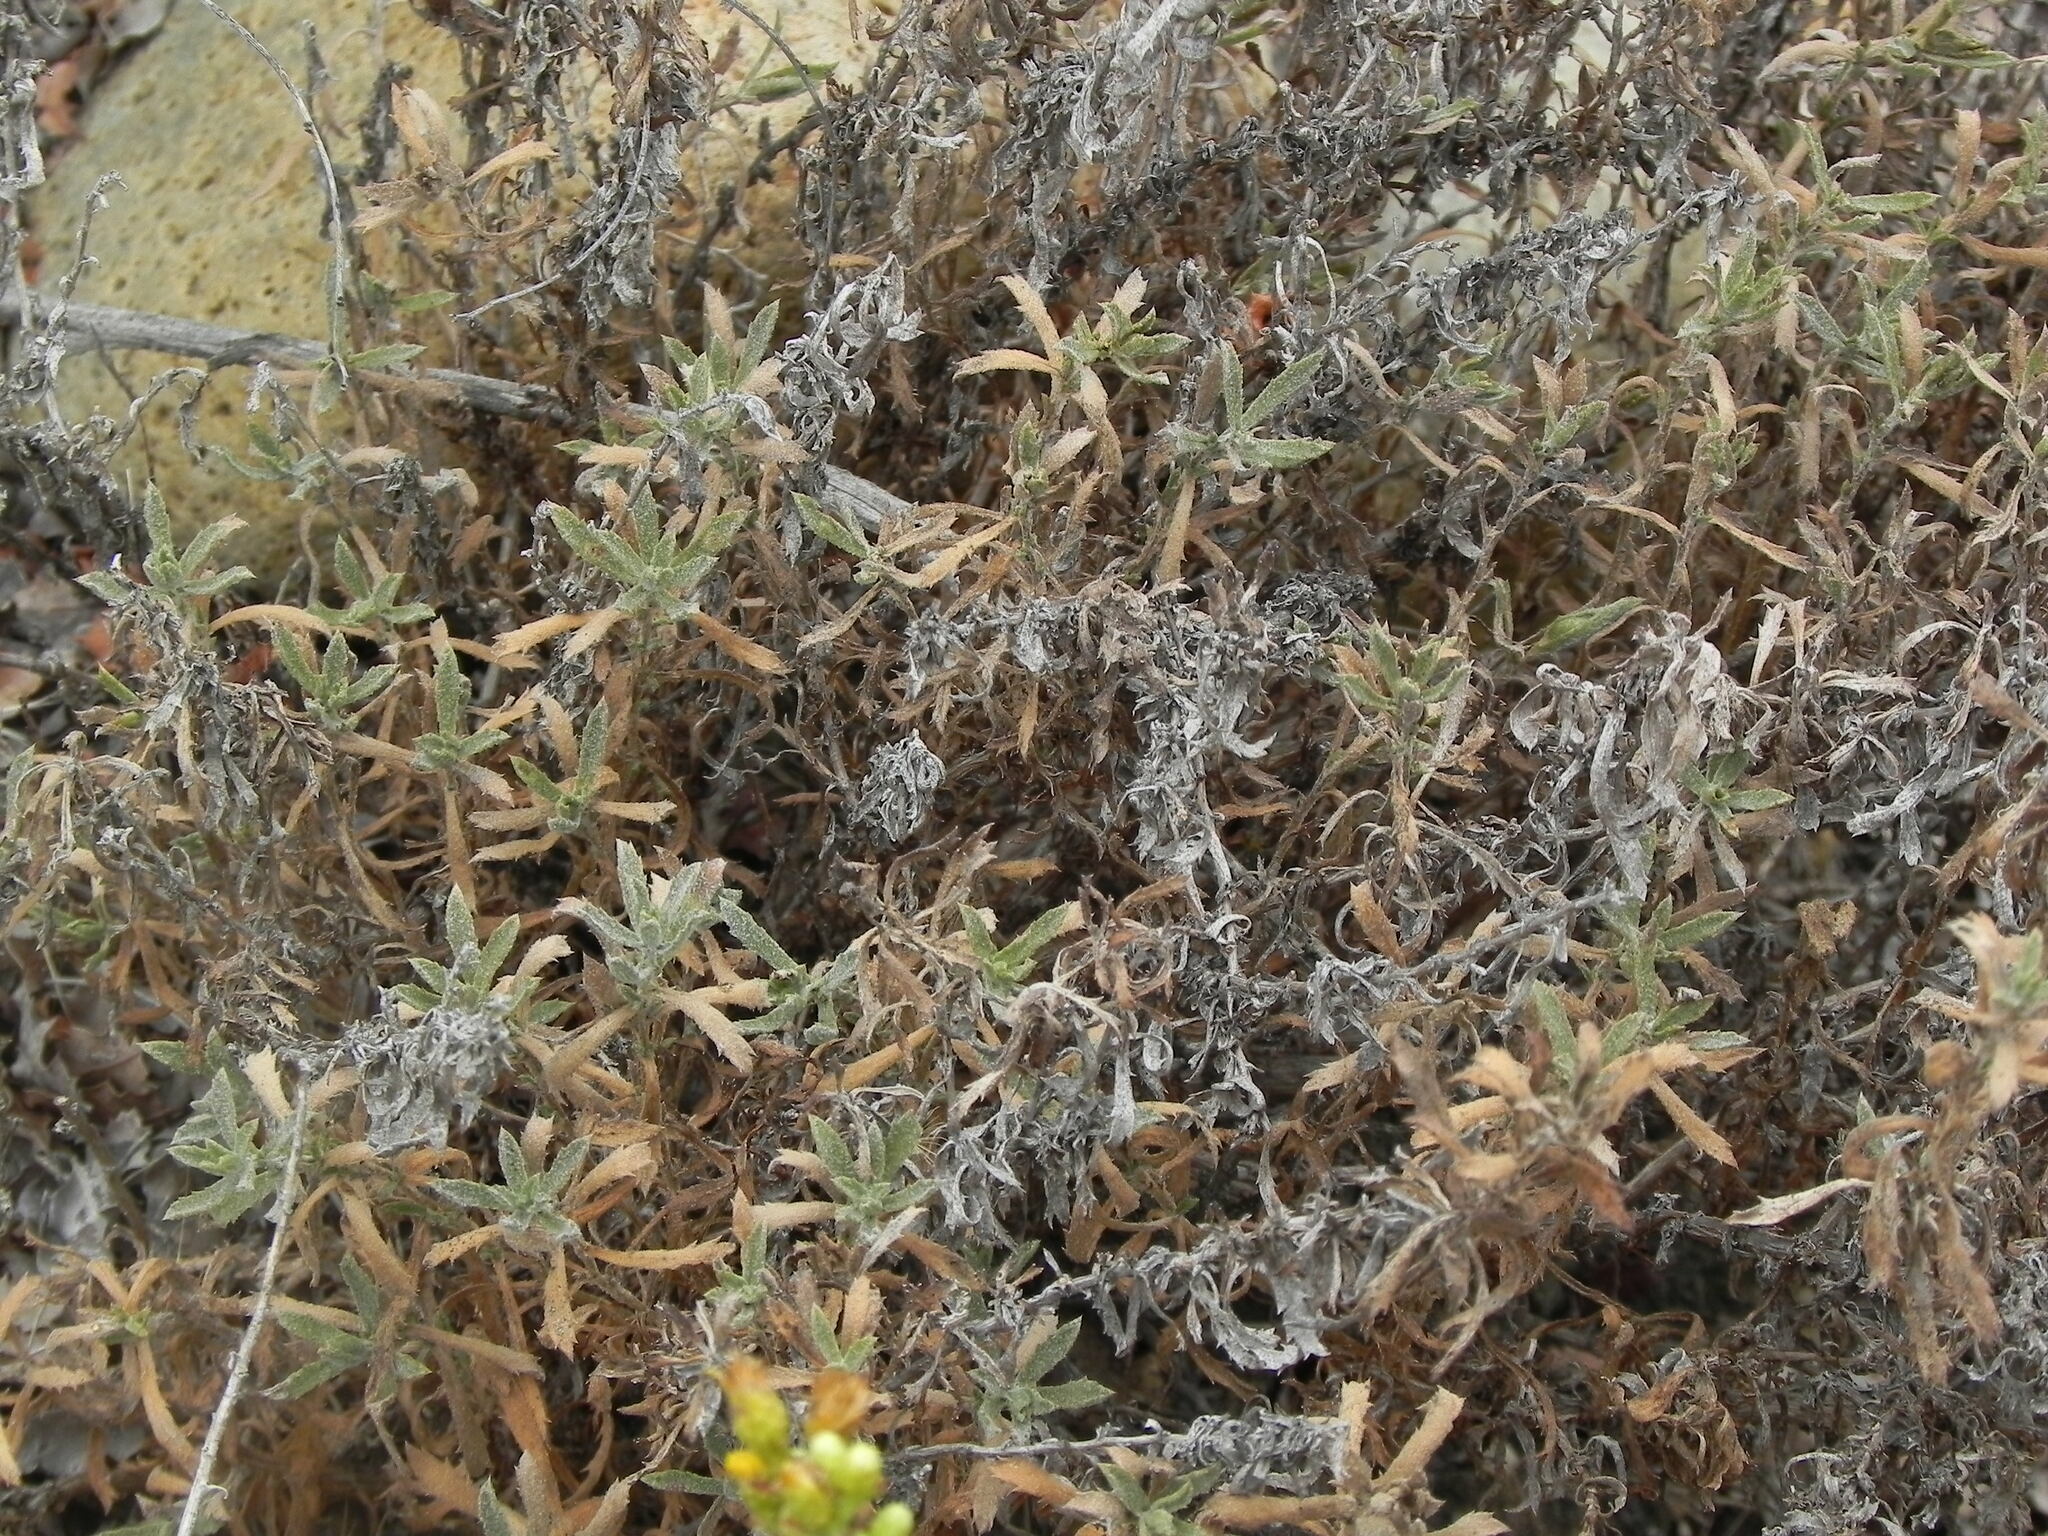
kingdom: Plantae
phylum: Tracheophyta
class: Magnoliopsida
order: Asterales
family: Asteraceae
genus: Isocoma
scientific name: Isocoma menziesii
